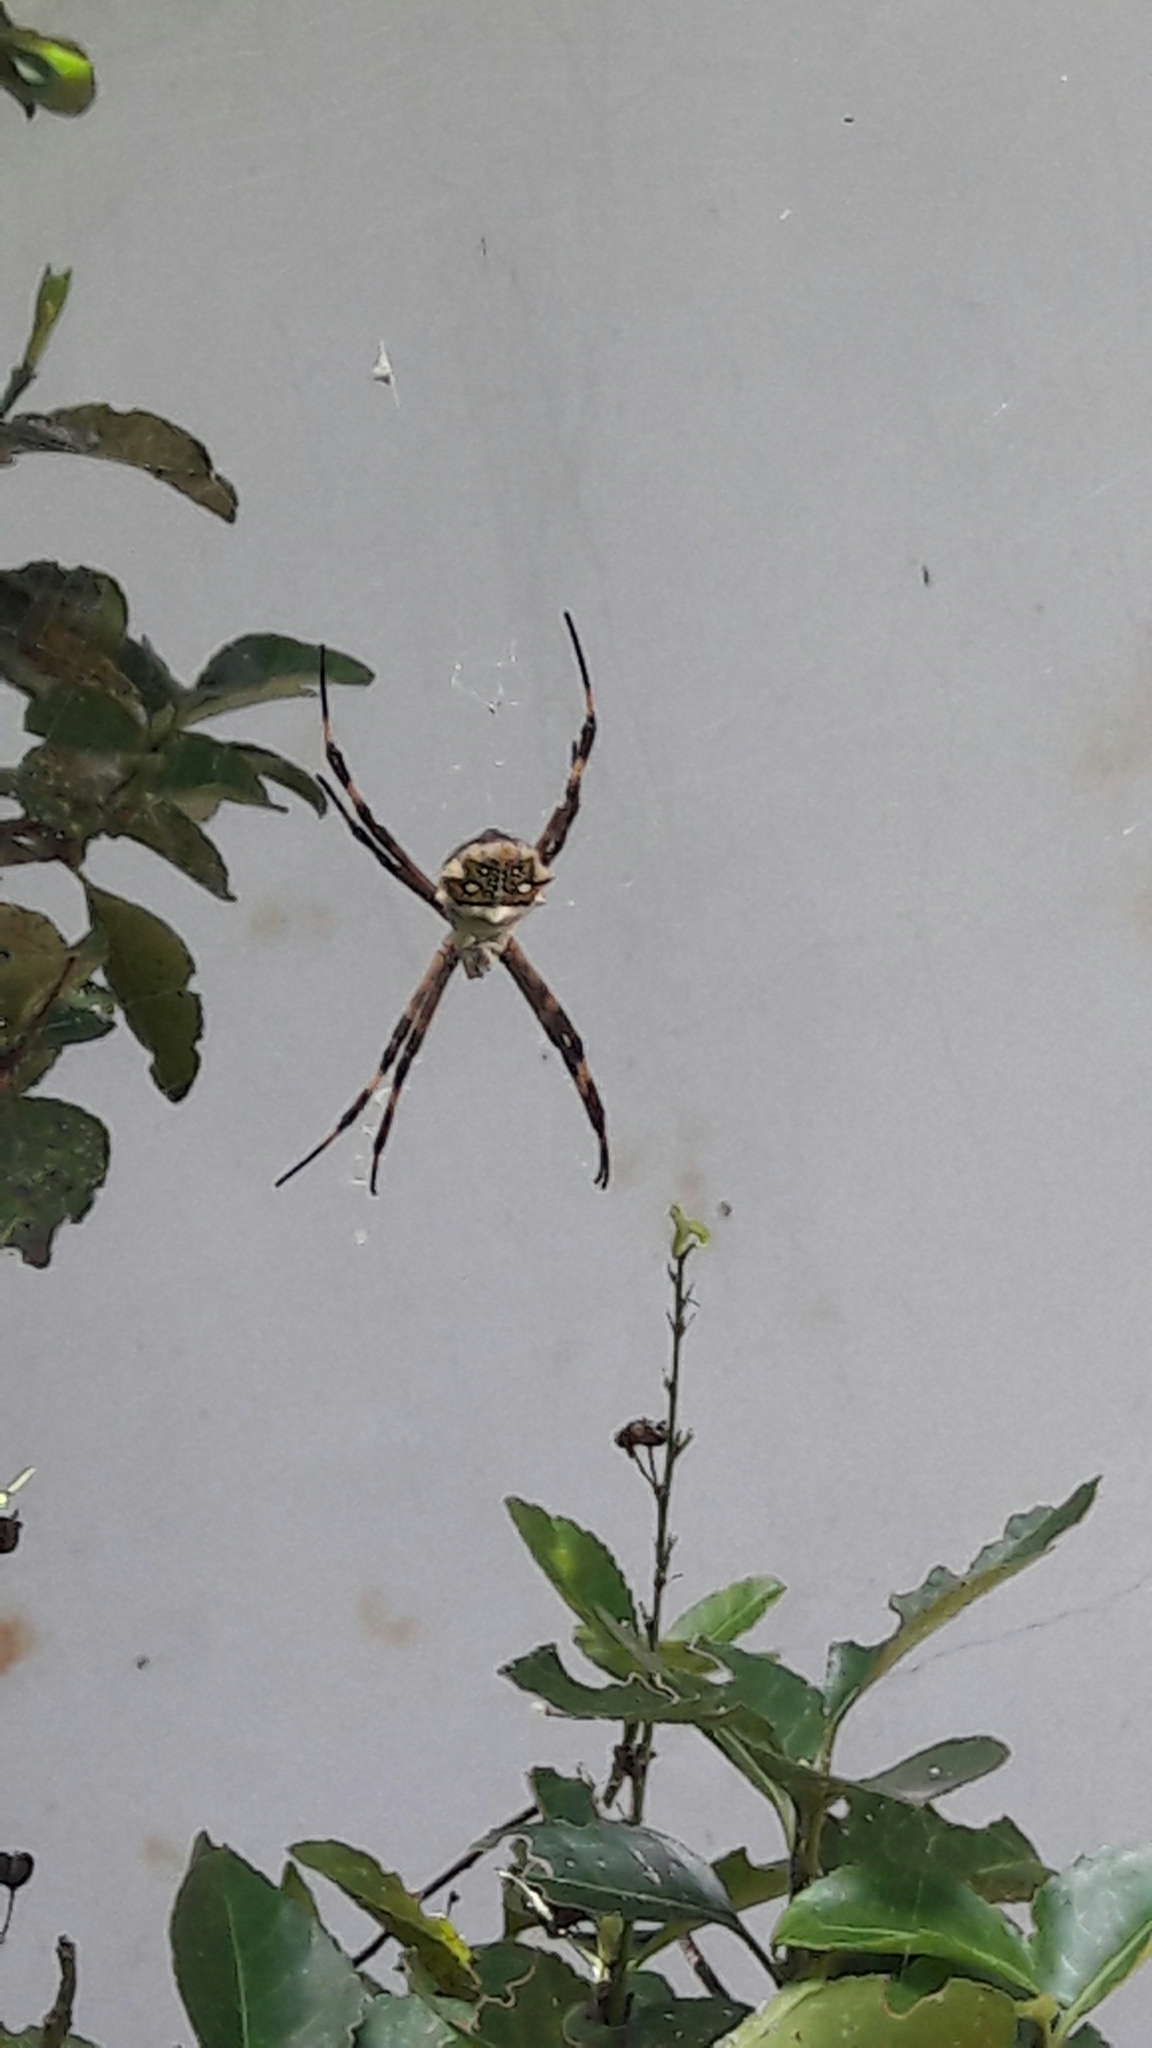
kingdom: Animalia
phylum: Arthropoda
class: Arachnida
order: Araneae
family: Araneidae
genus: Argiope
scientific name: Argiope argentata
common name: Orb weavers
